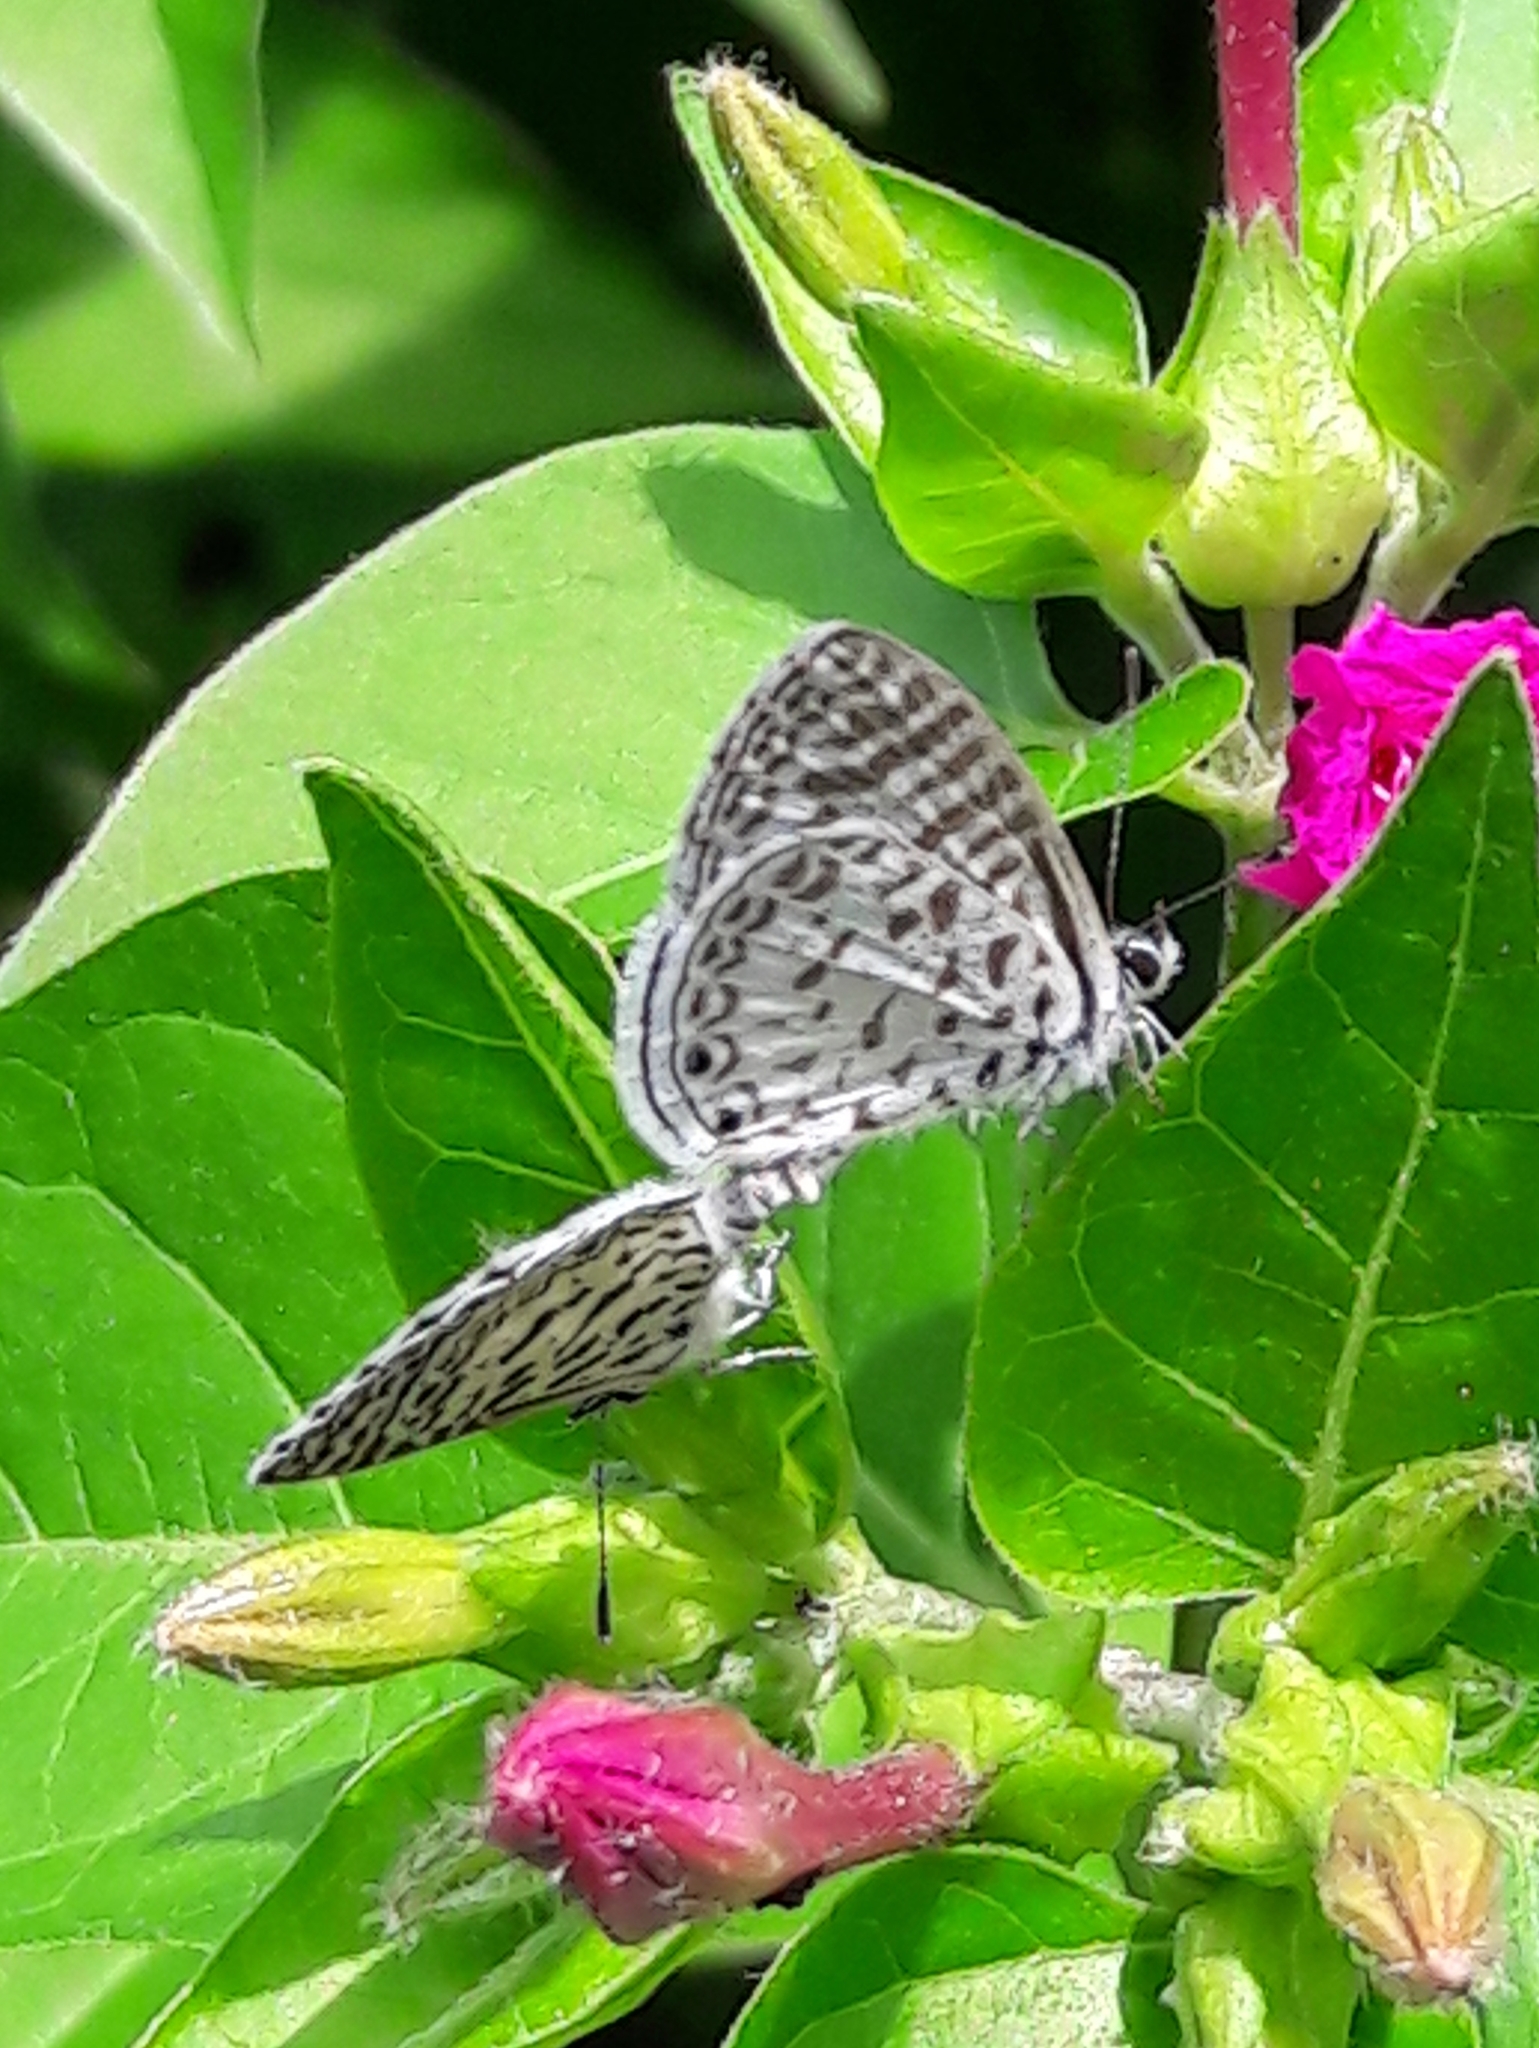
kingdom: Animalia
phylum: Arthropoda
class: Insecta
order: Lepidoptera
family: Lycaenidae
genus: Leptotes
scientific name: Leptotes cassius
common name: Cassius blue
